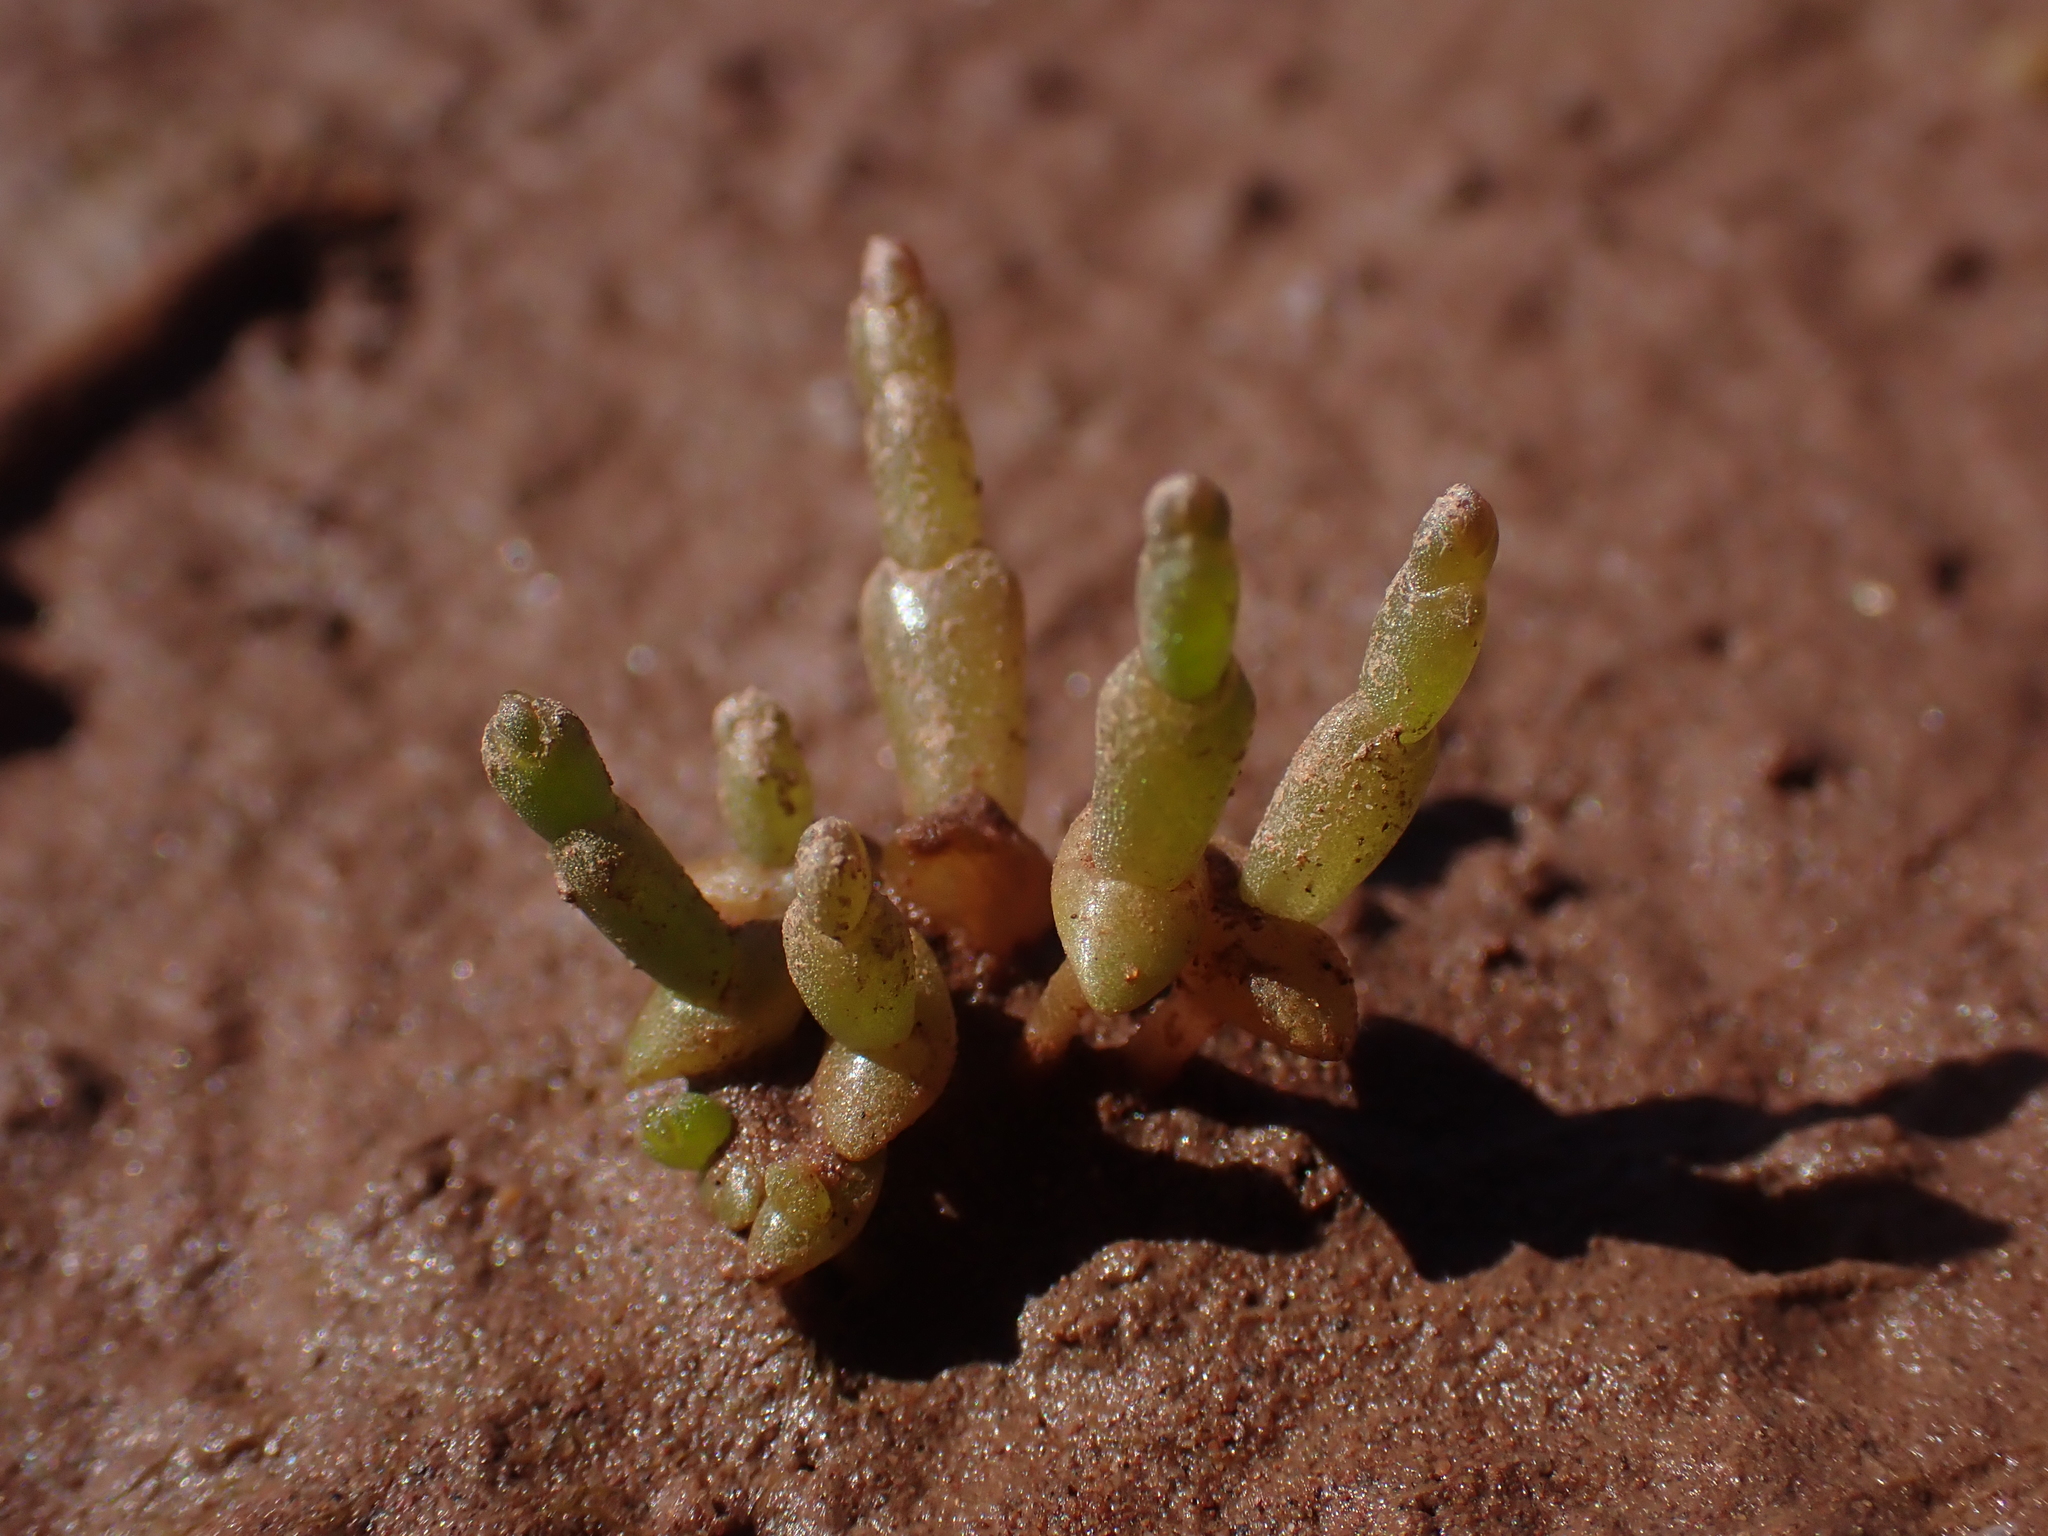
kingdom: Plantae
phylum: Tracheophyta
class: Magnoliopsida
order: Caryophyllales
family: Amaranthaceae
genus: Salicornia
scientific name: Salicornia europaea
